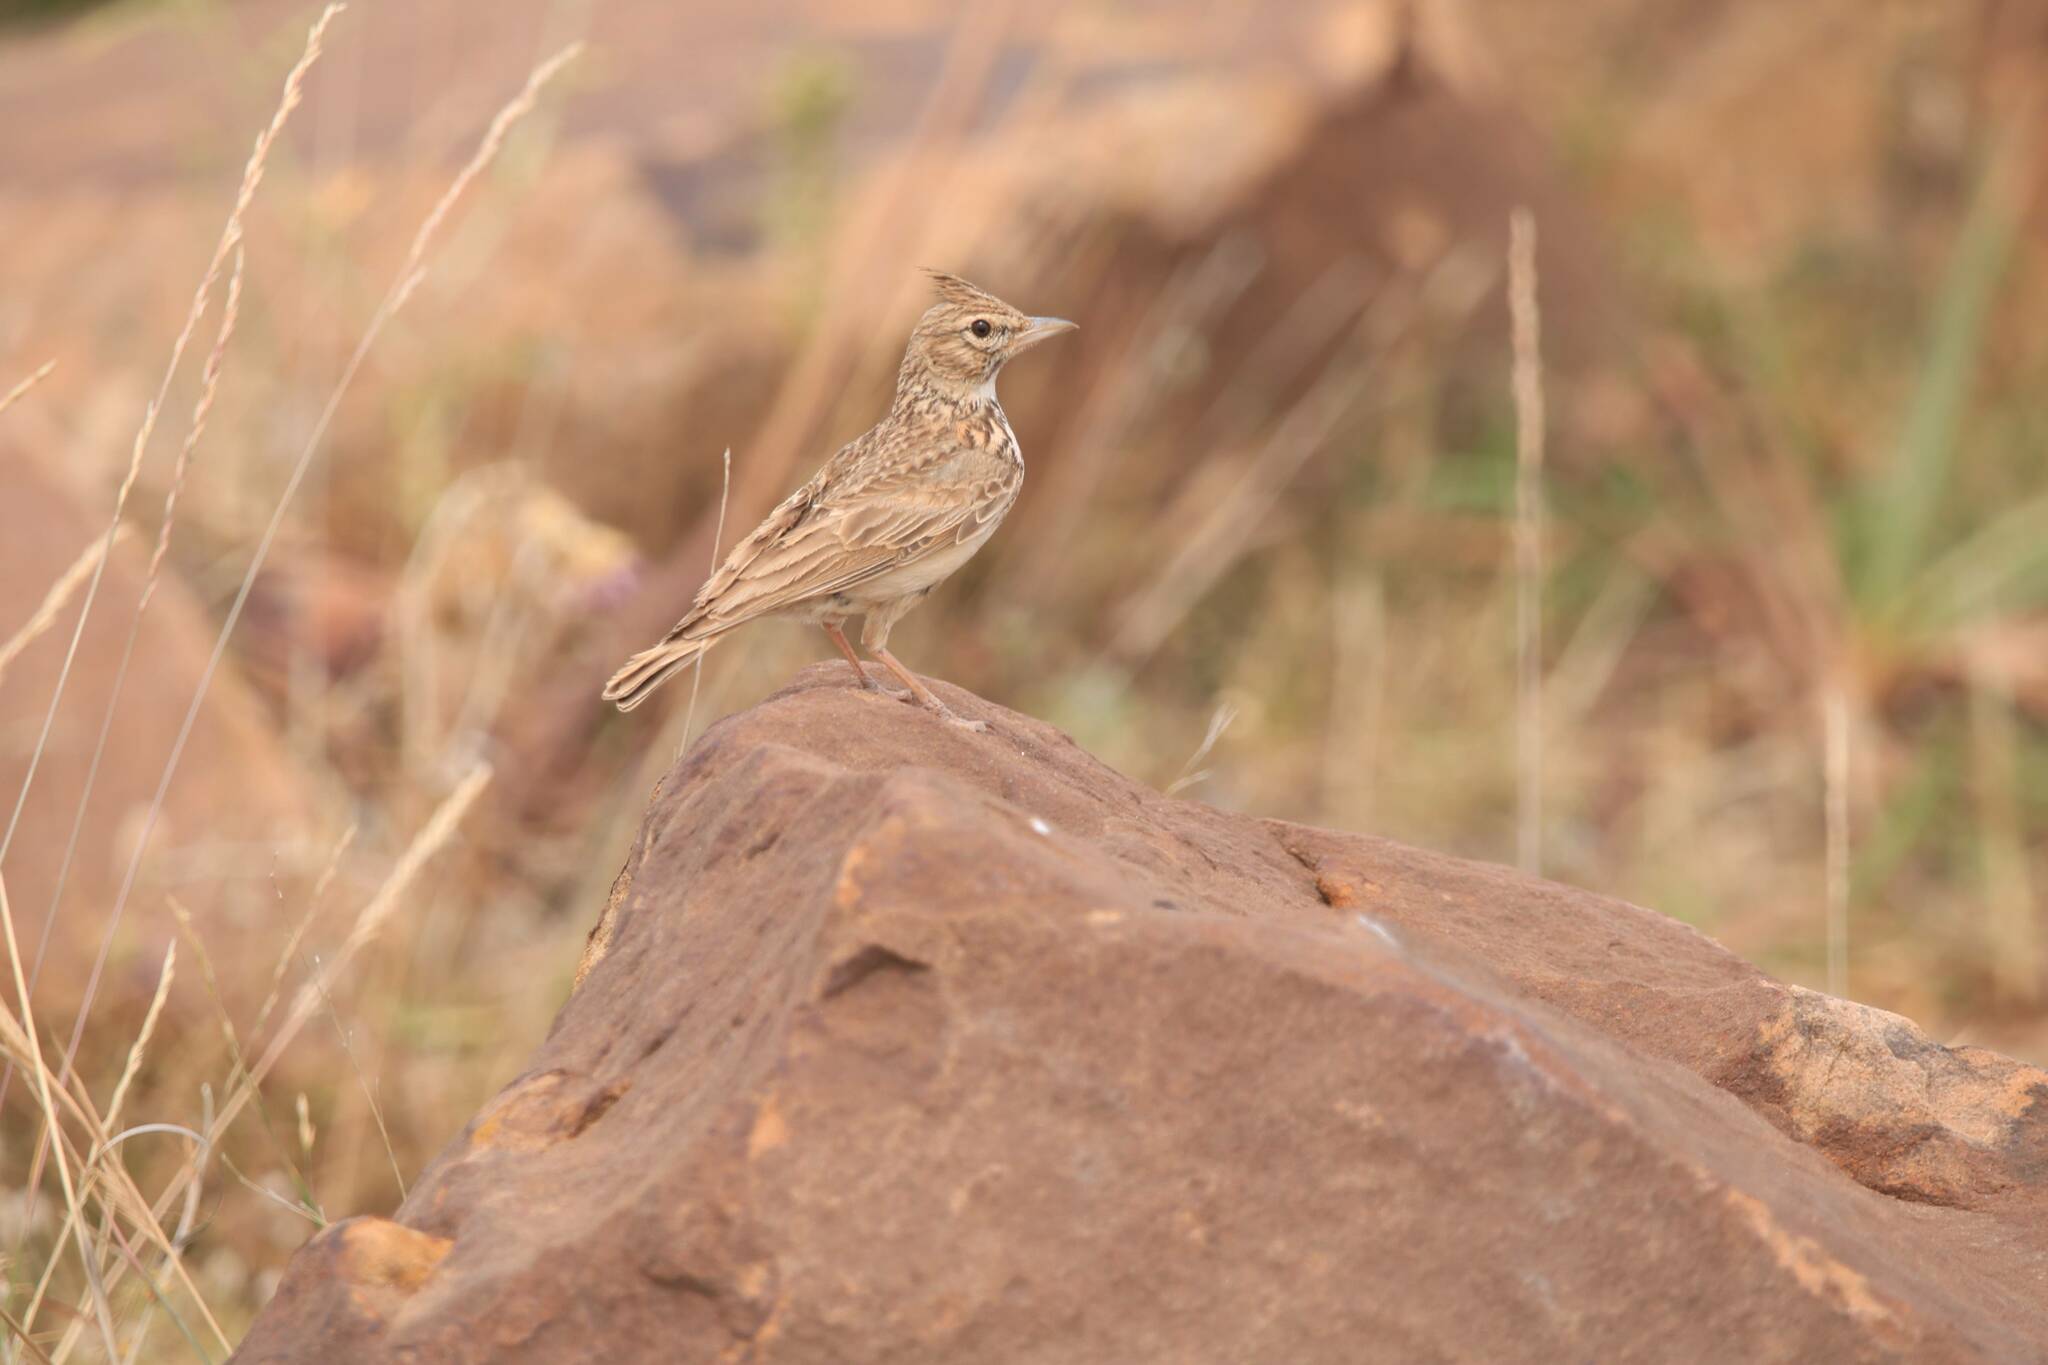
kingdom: Animalia
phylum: Chordata
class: Aves
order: Passeriformes
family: Alaudidae
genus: Galerida
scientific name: Galerida theklae
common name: Thekla lark
